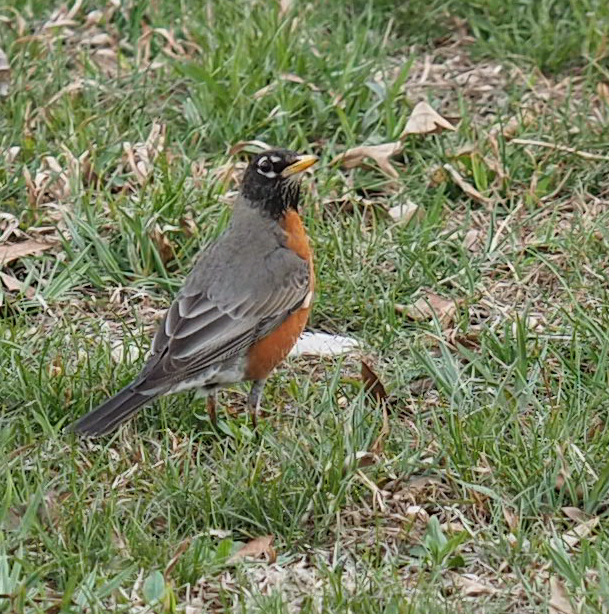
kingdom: Animalia
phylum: Chordata
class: Aves
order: Passeriformes
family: Turdidae
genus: Turdus
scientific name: Turdus migratorius
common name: American robin
